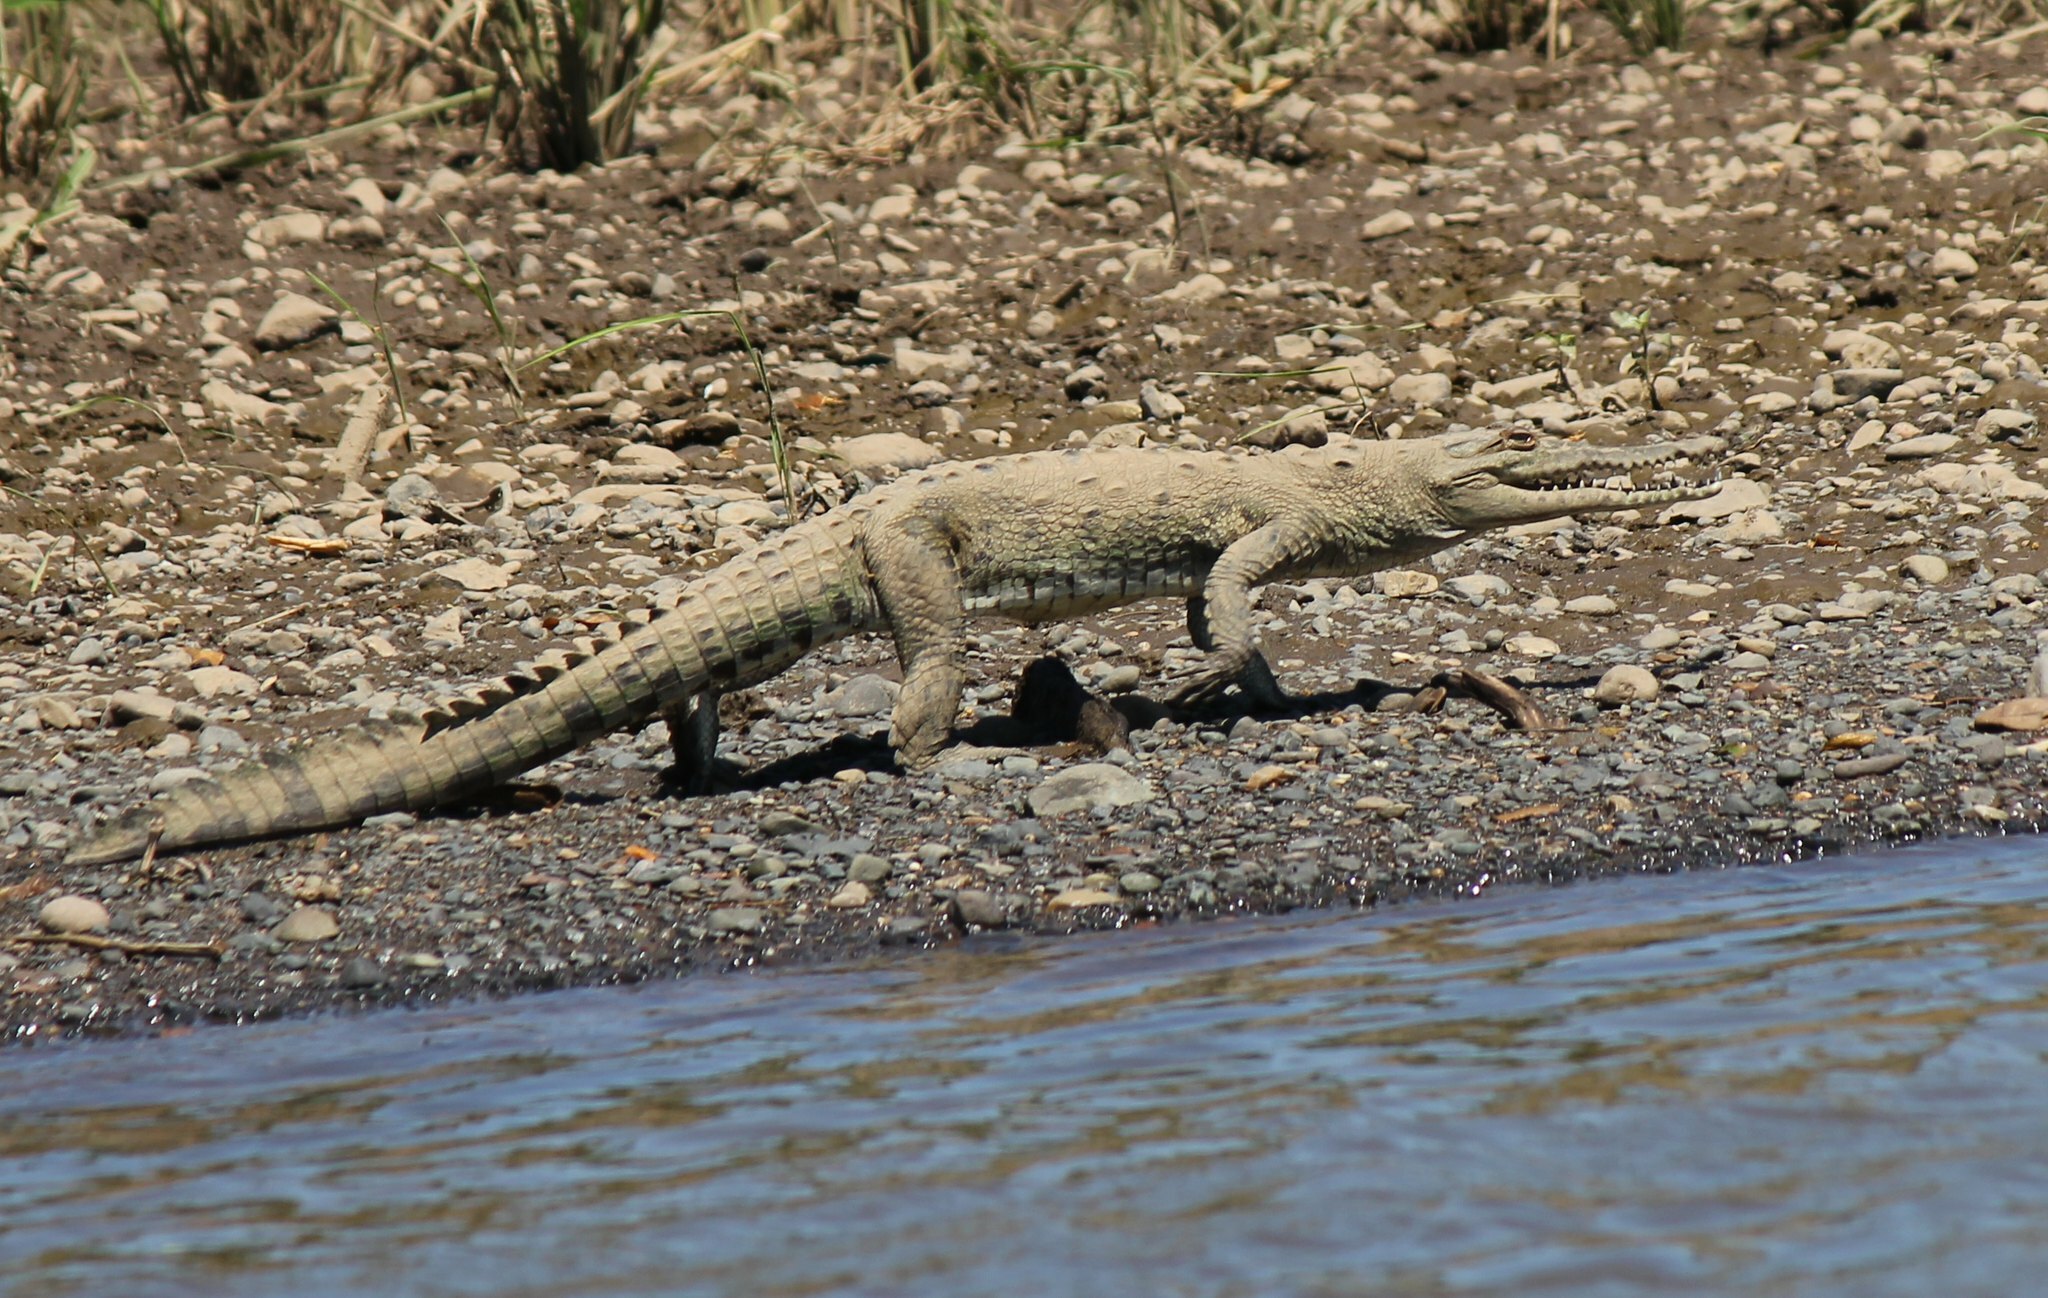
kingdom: Animalia
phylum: Chordata
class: Crocodylia
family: Crocodylidae
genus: Crocodylus
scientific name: Crocodylus acutus
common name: American crocodile
